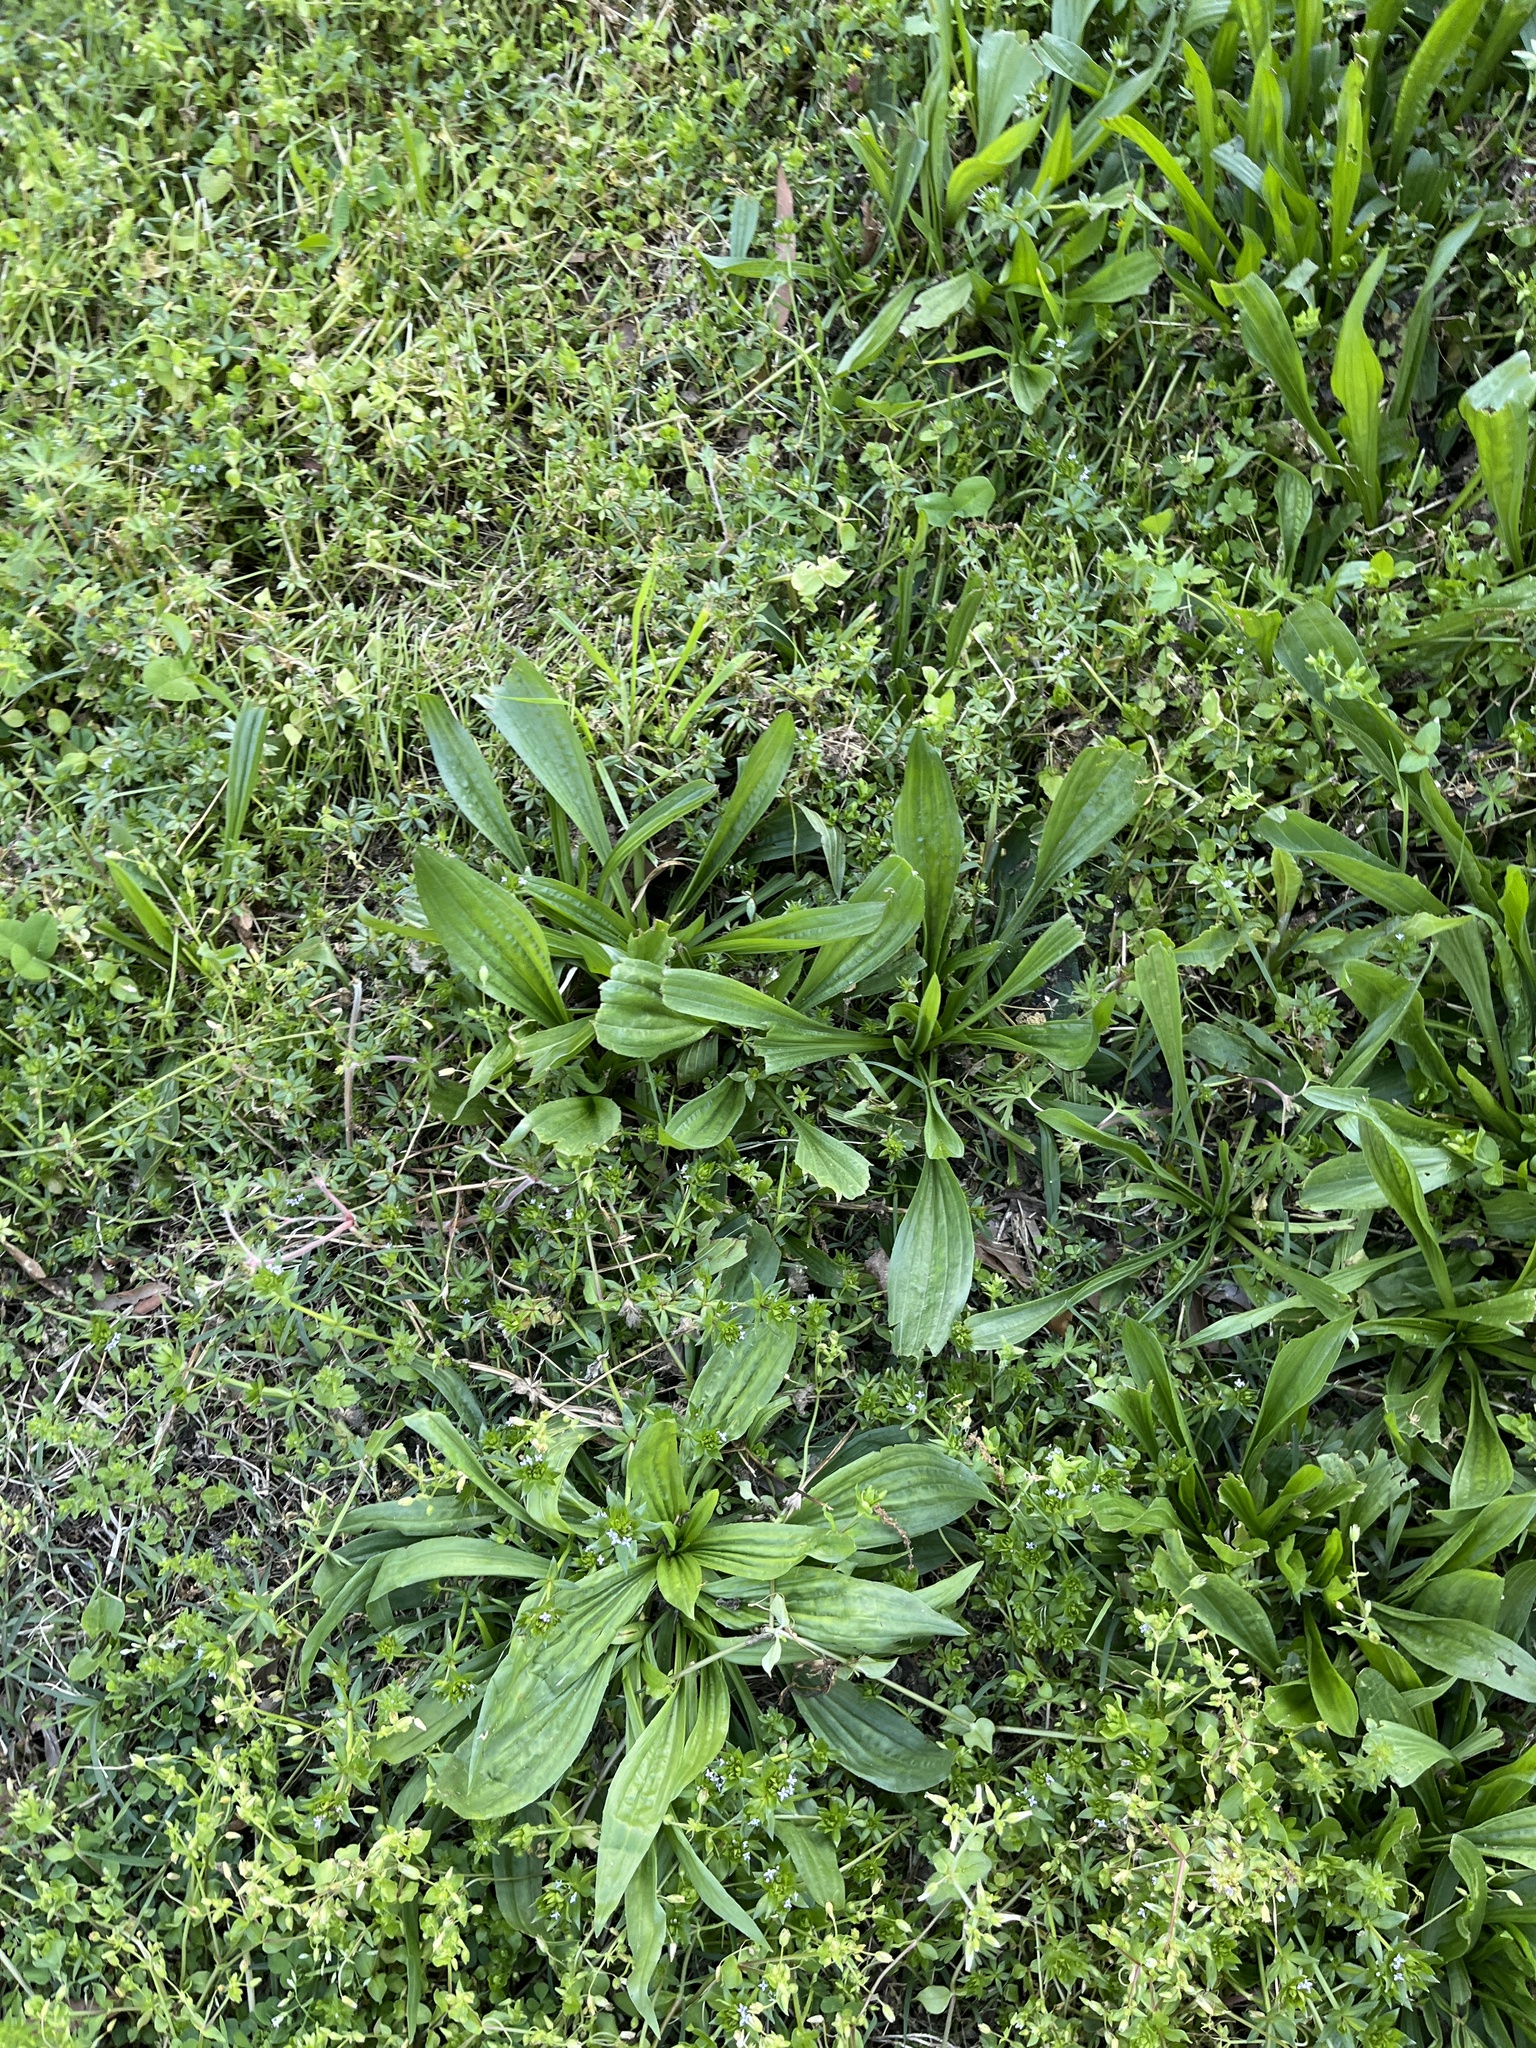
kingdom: Plantae
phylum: Tracheophyta
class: Magnoliopsida
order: Lamiales
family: Plantaginaceae
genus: Plantago
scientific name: Plantago lanceolata
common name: Ribwort plantain
